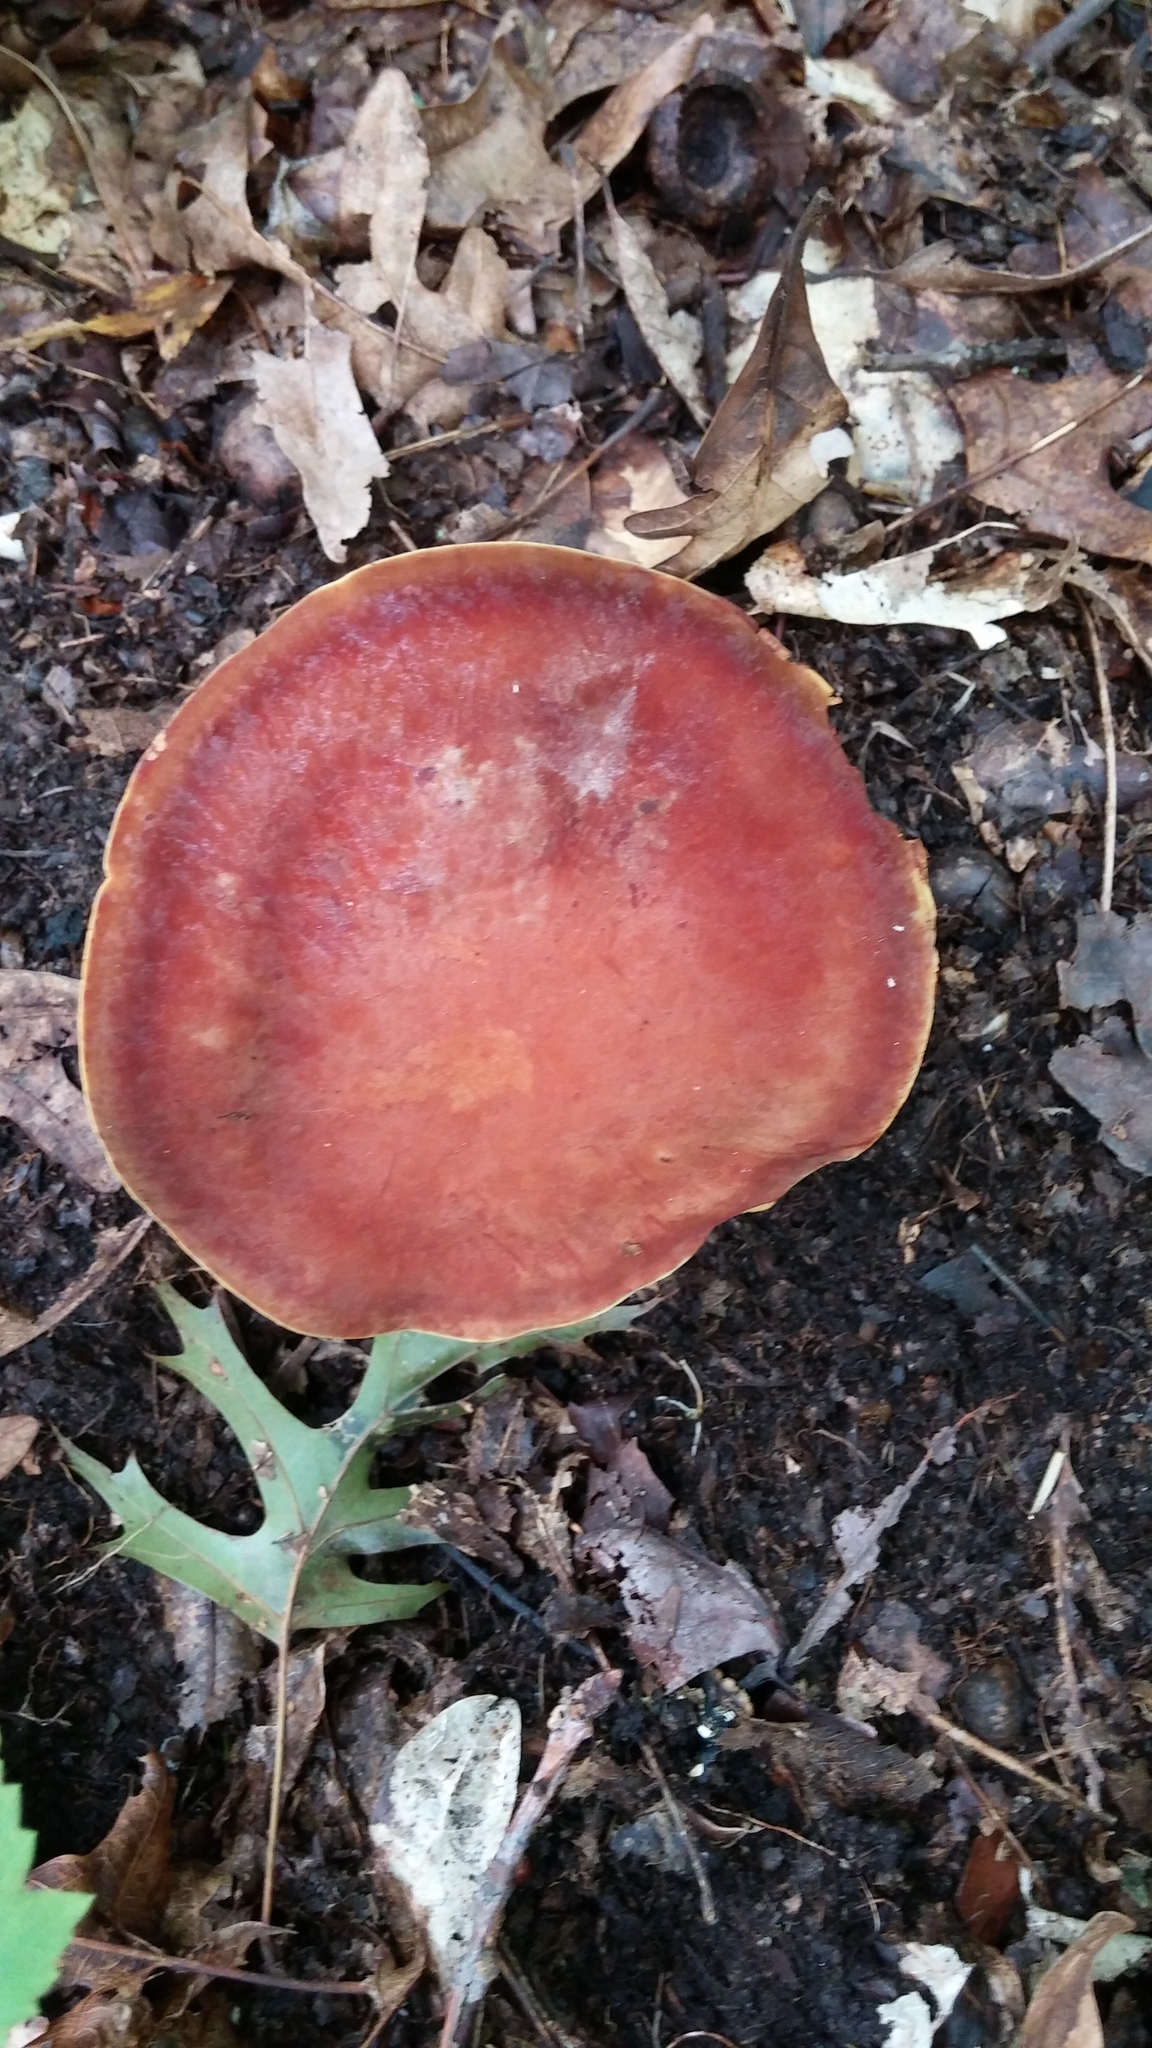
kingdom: Fungi
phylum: Basidiomycota
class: Agaricomycetes
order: Boletales
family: Boletaceae
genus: Phylloporus
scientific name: Phylloporus rhodoxanthus
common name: Golden gilled bolete
